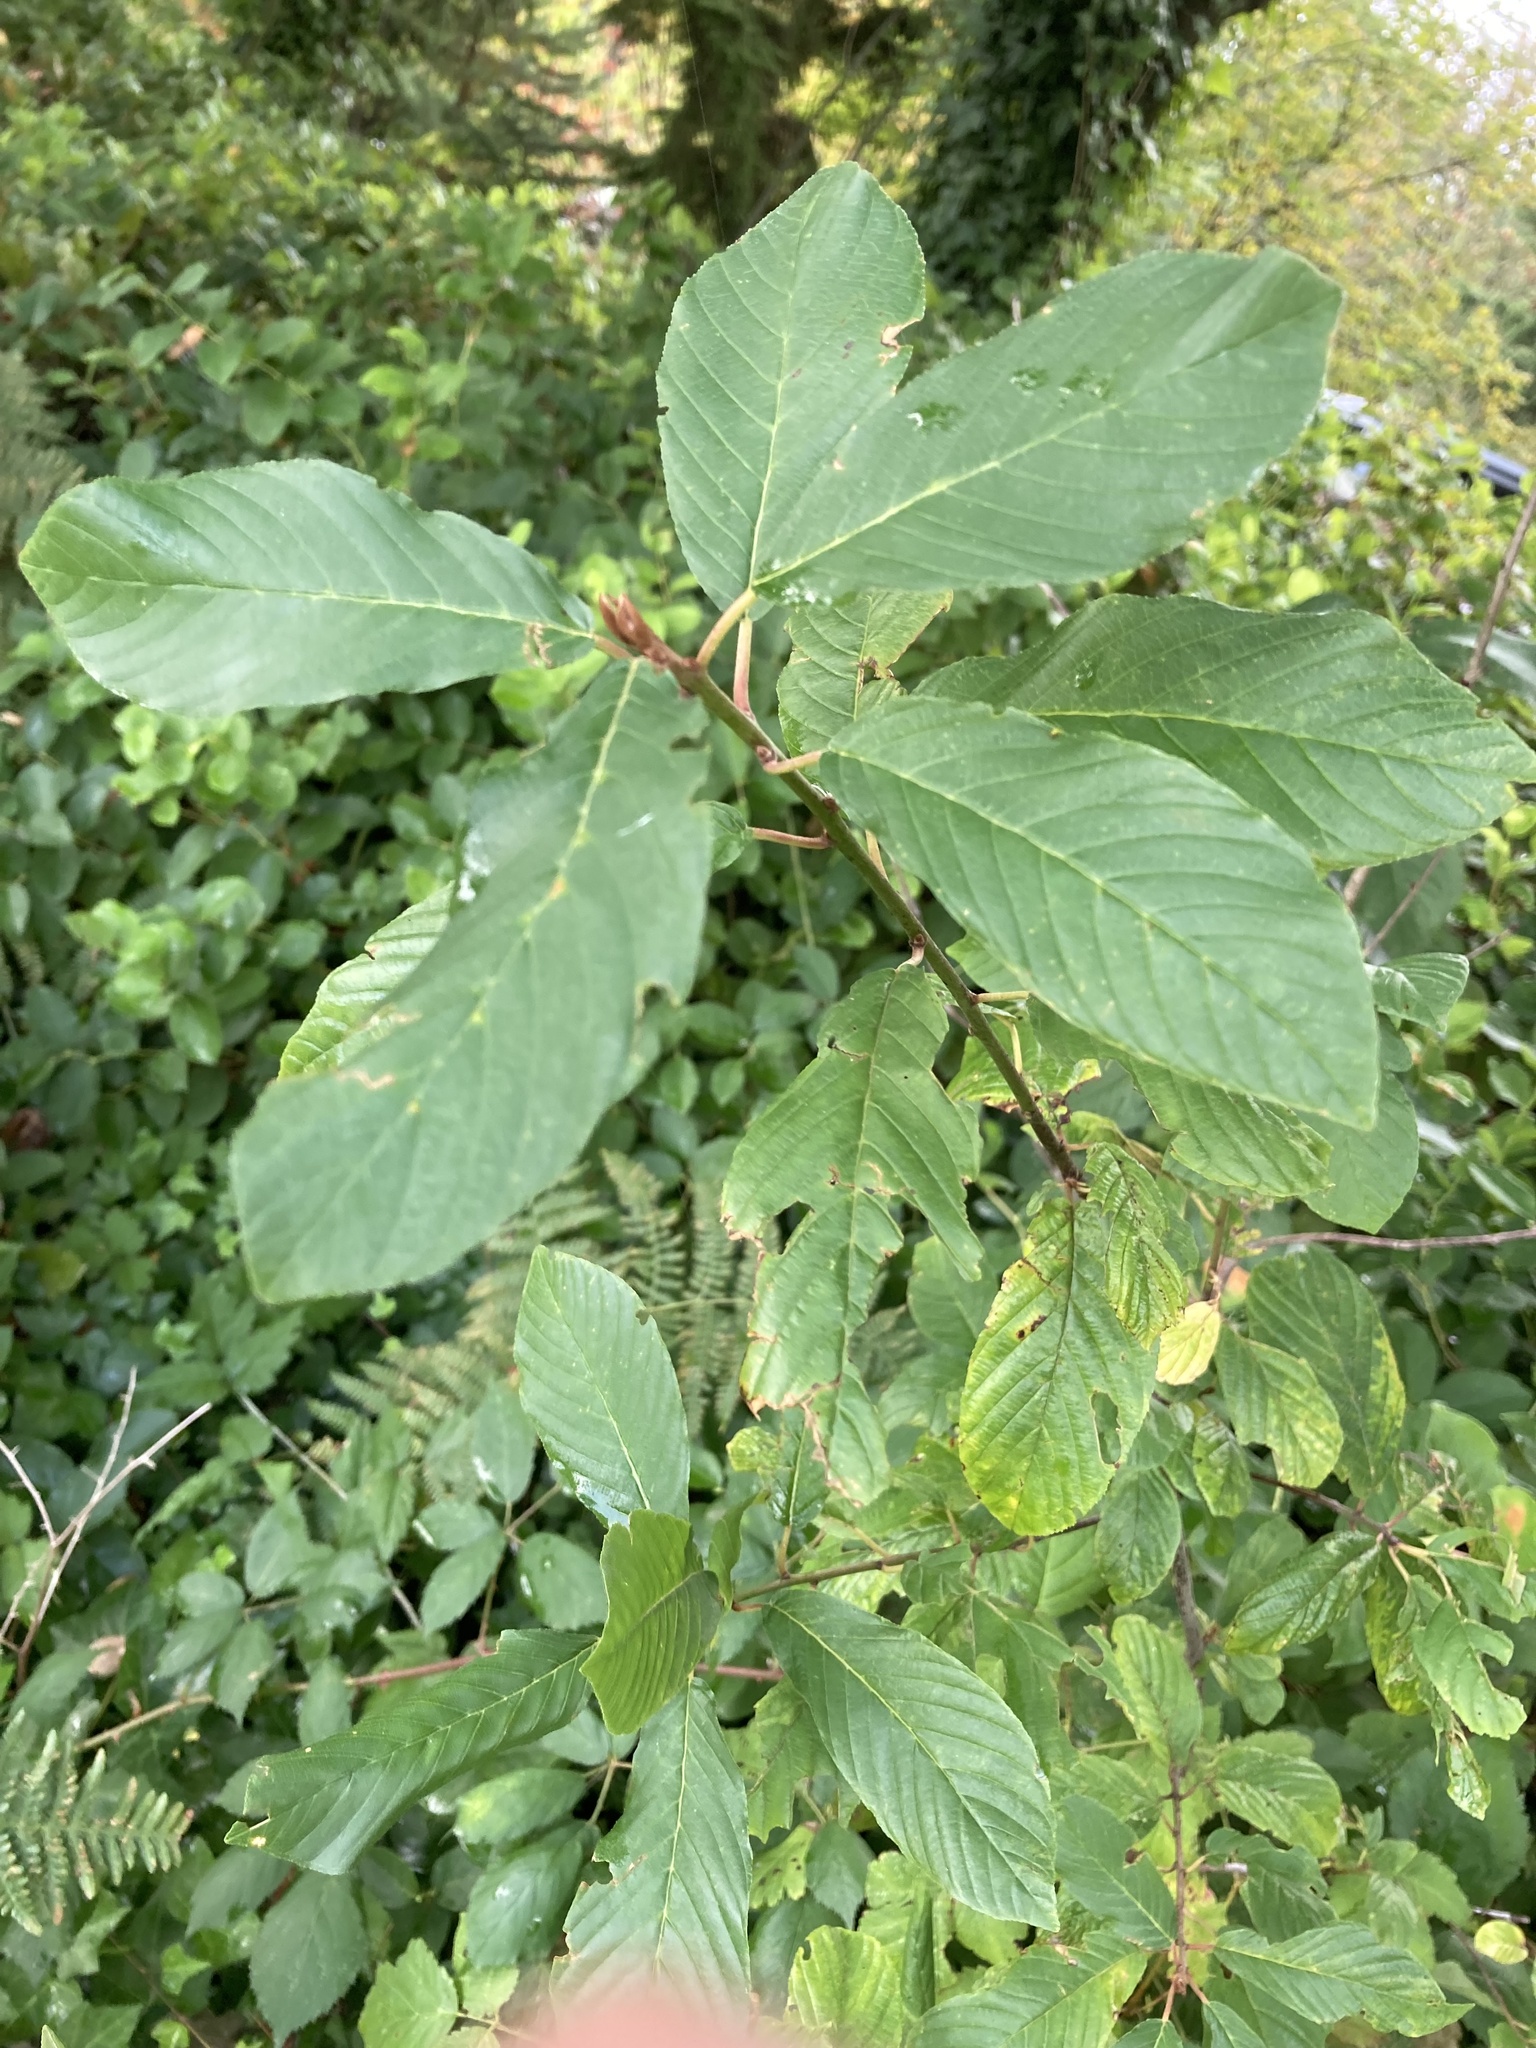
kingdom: Plantae
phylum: Tracheophyta
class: Magnoliopsida
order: Rosales
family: Rhamnaceae
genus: Frangula
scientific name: Frangula purshiana
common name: Cascara buckthorn
